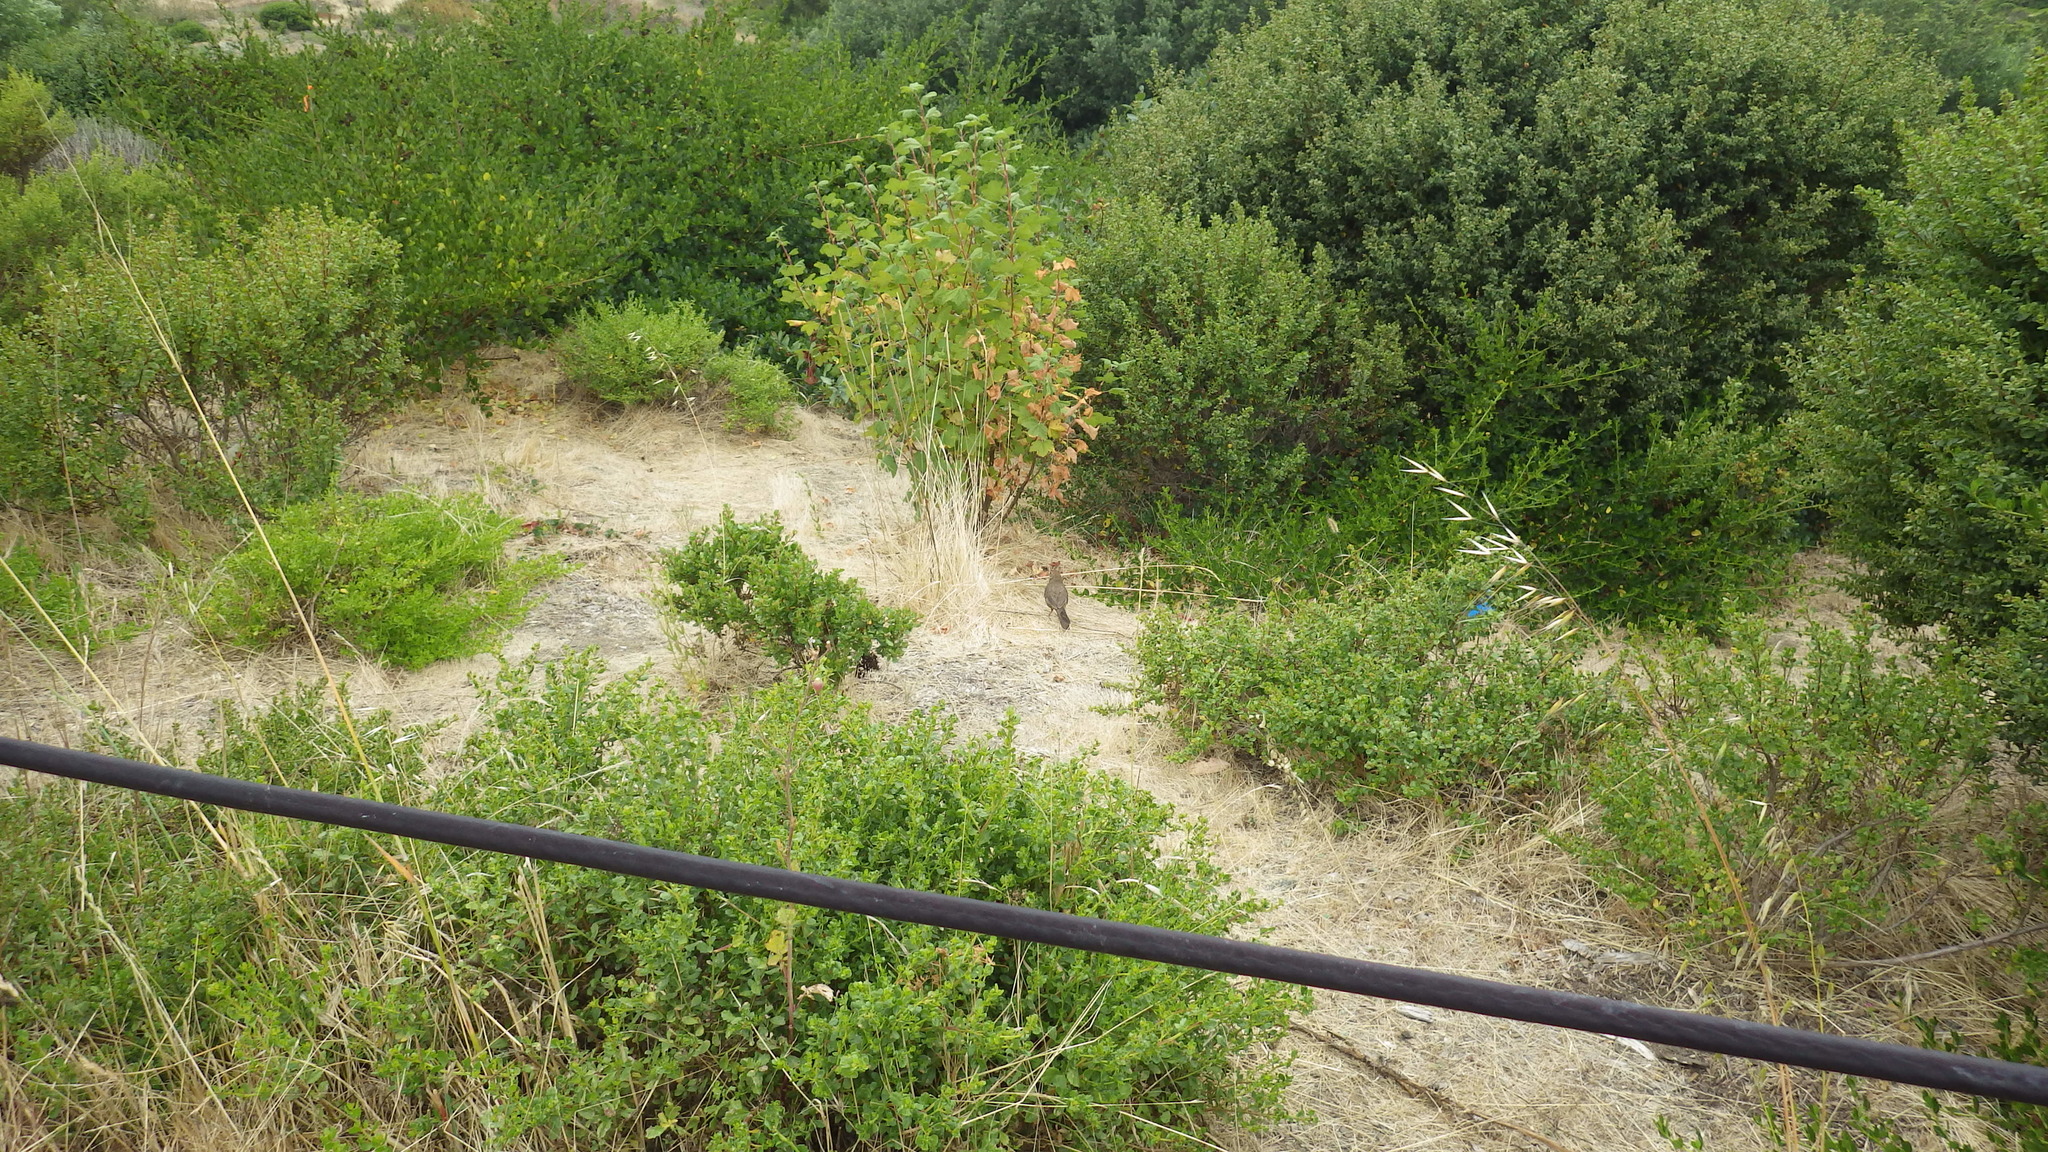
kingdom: Animalia
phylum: Chordata
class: Aves
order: Passeriformes
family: Passerellidae
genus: Melozone
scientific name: Melozone crissalis
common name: California towhee
